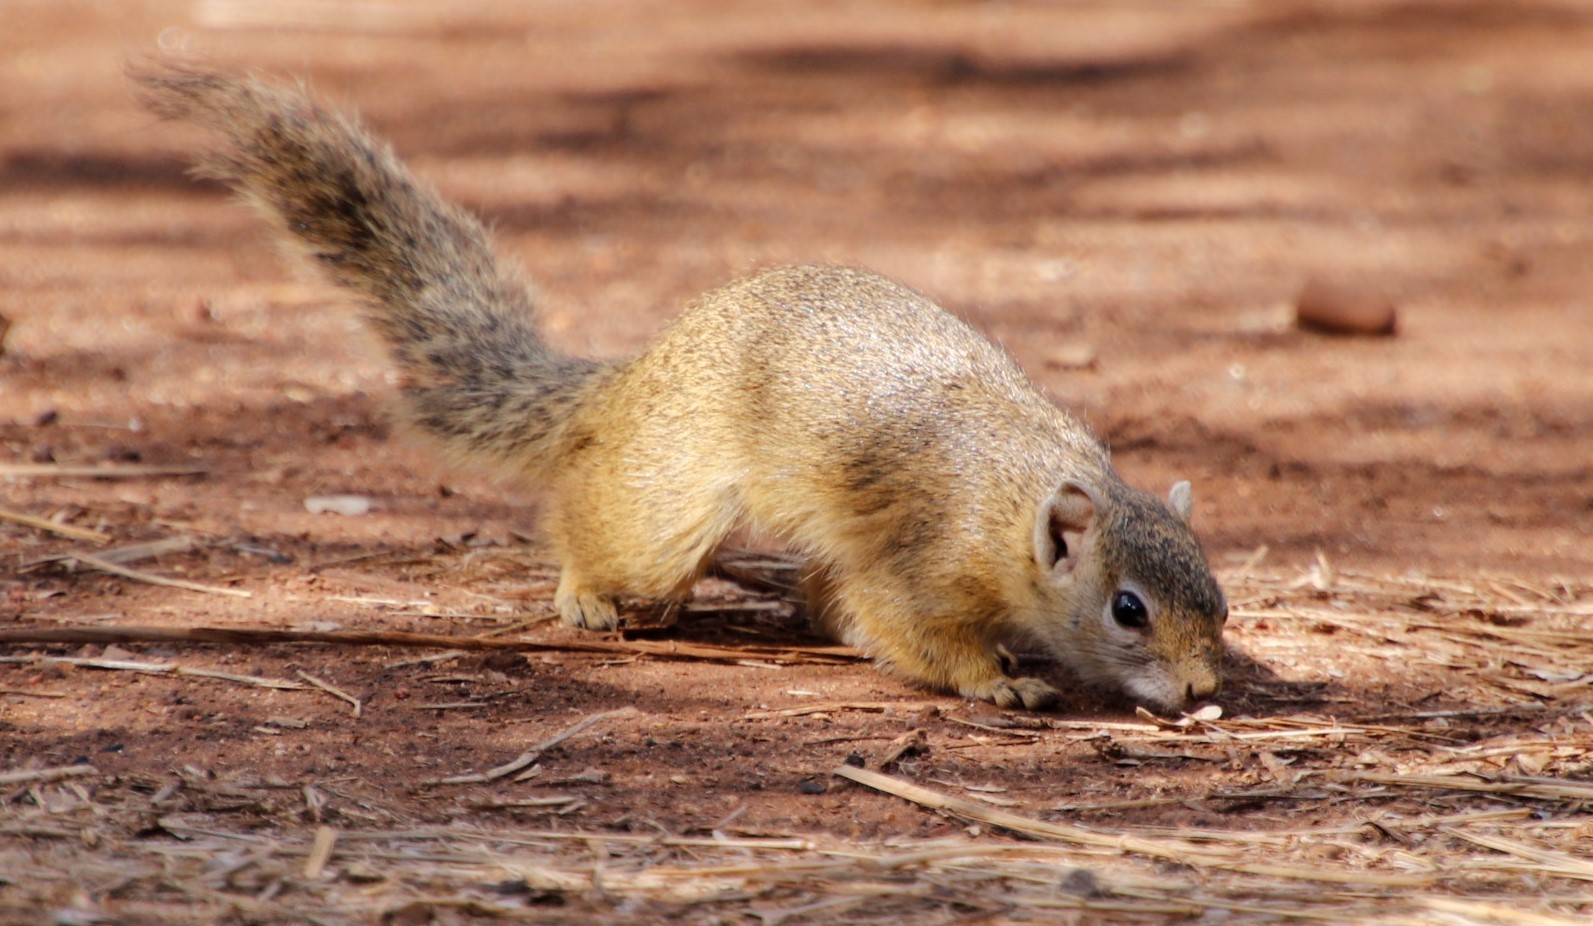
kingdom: Animalia
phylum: Chordata
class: Mammalia
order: Rodentia
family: Sciuridae
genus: Paraxerus
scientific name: Paraxerus cepapi
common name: Smith's bush squirrel
